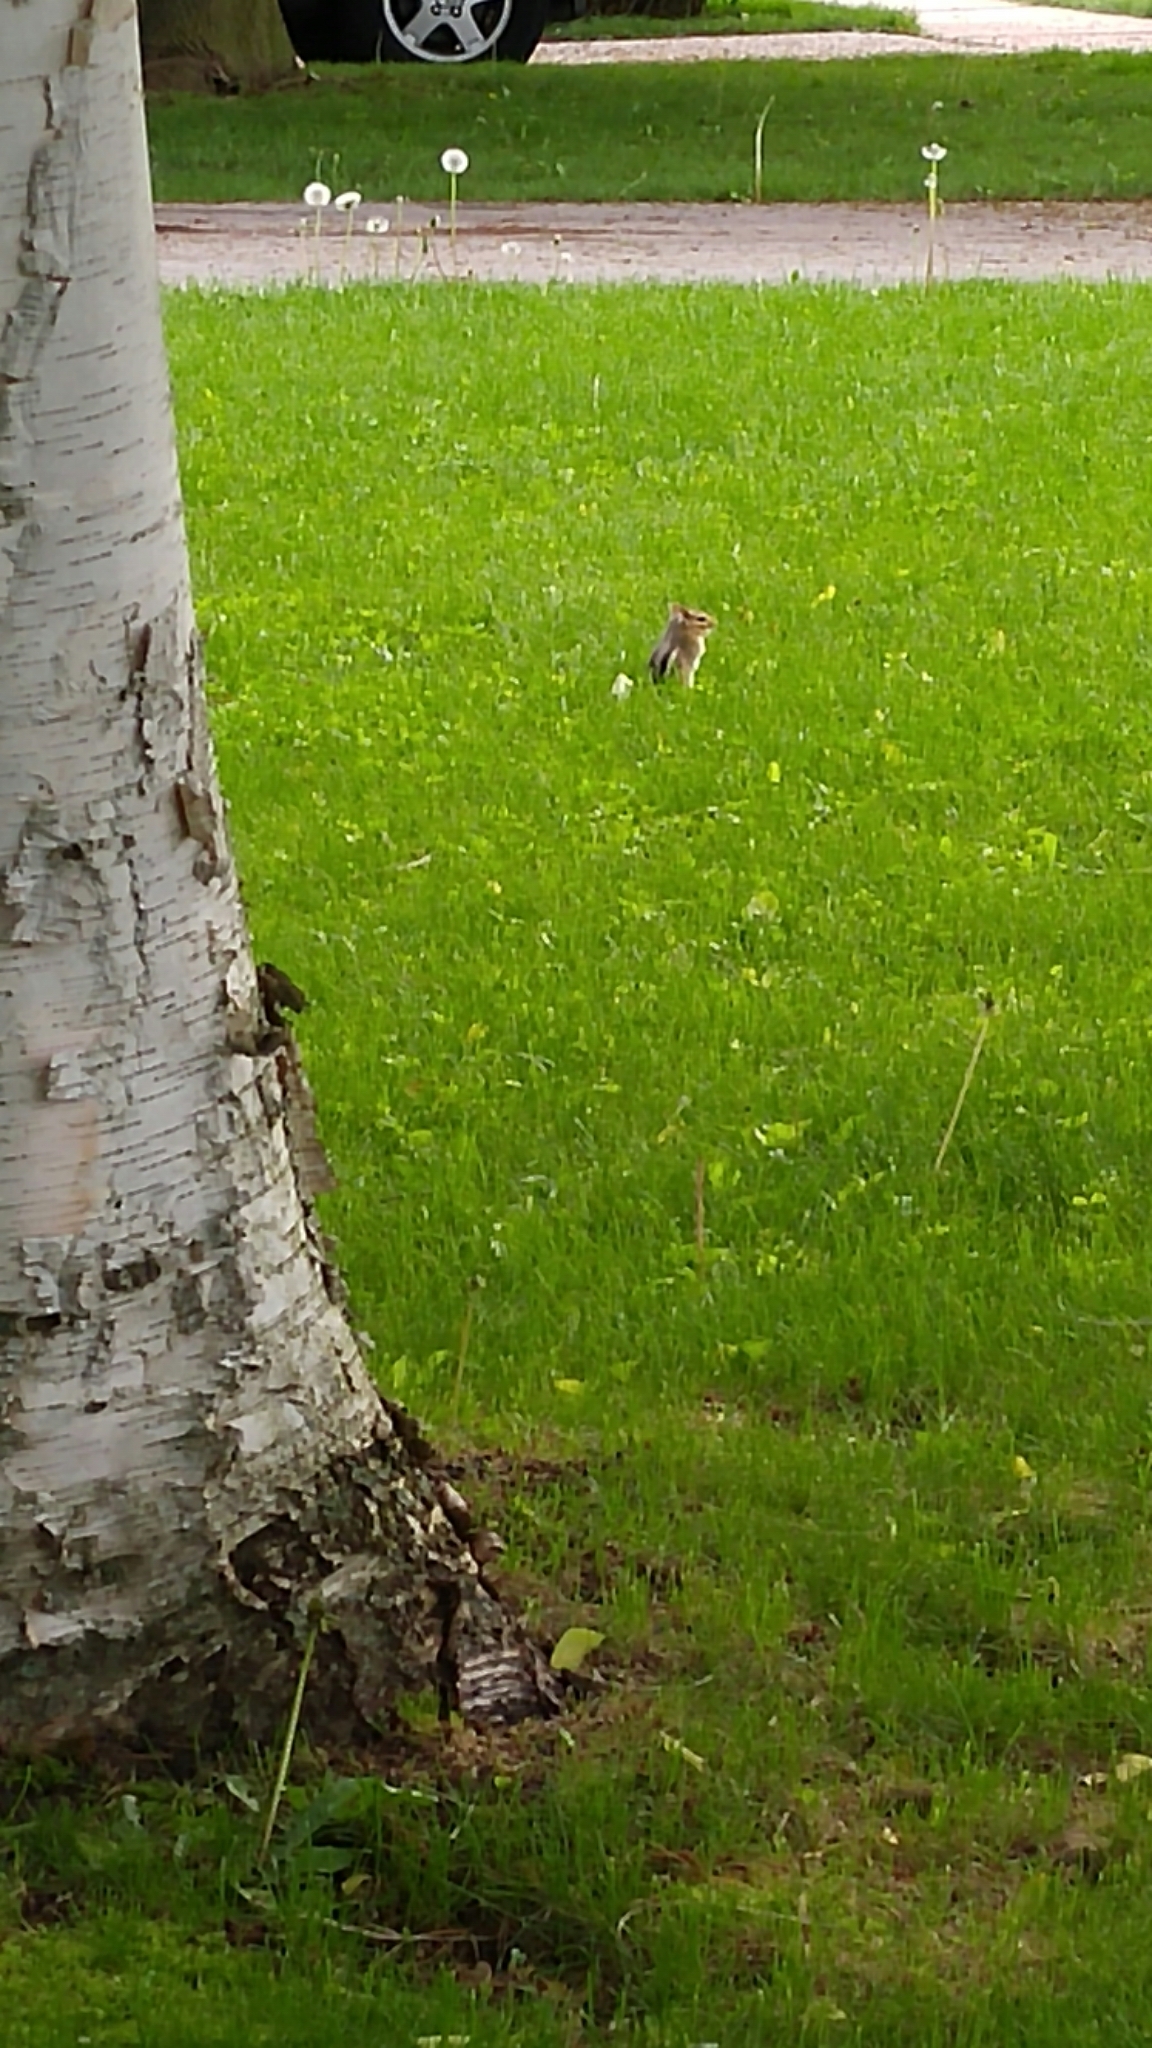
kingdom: Animalia
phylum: Chordata
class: Mammalia
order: Rodentia
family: Sciuridae
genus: Tamias
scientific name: Tamias striatus
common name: Eastern chipmunk
